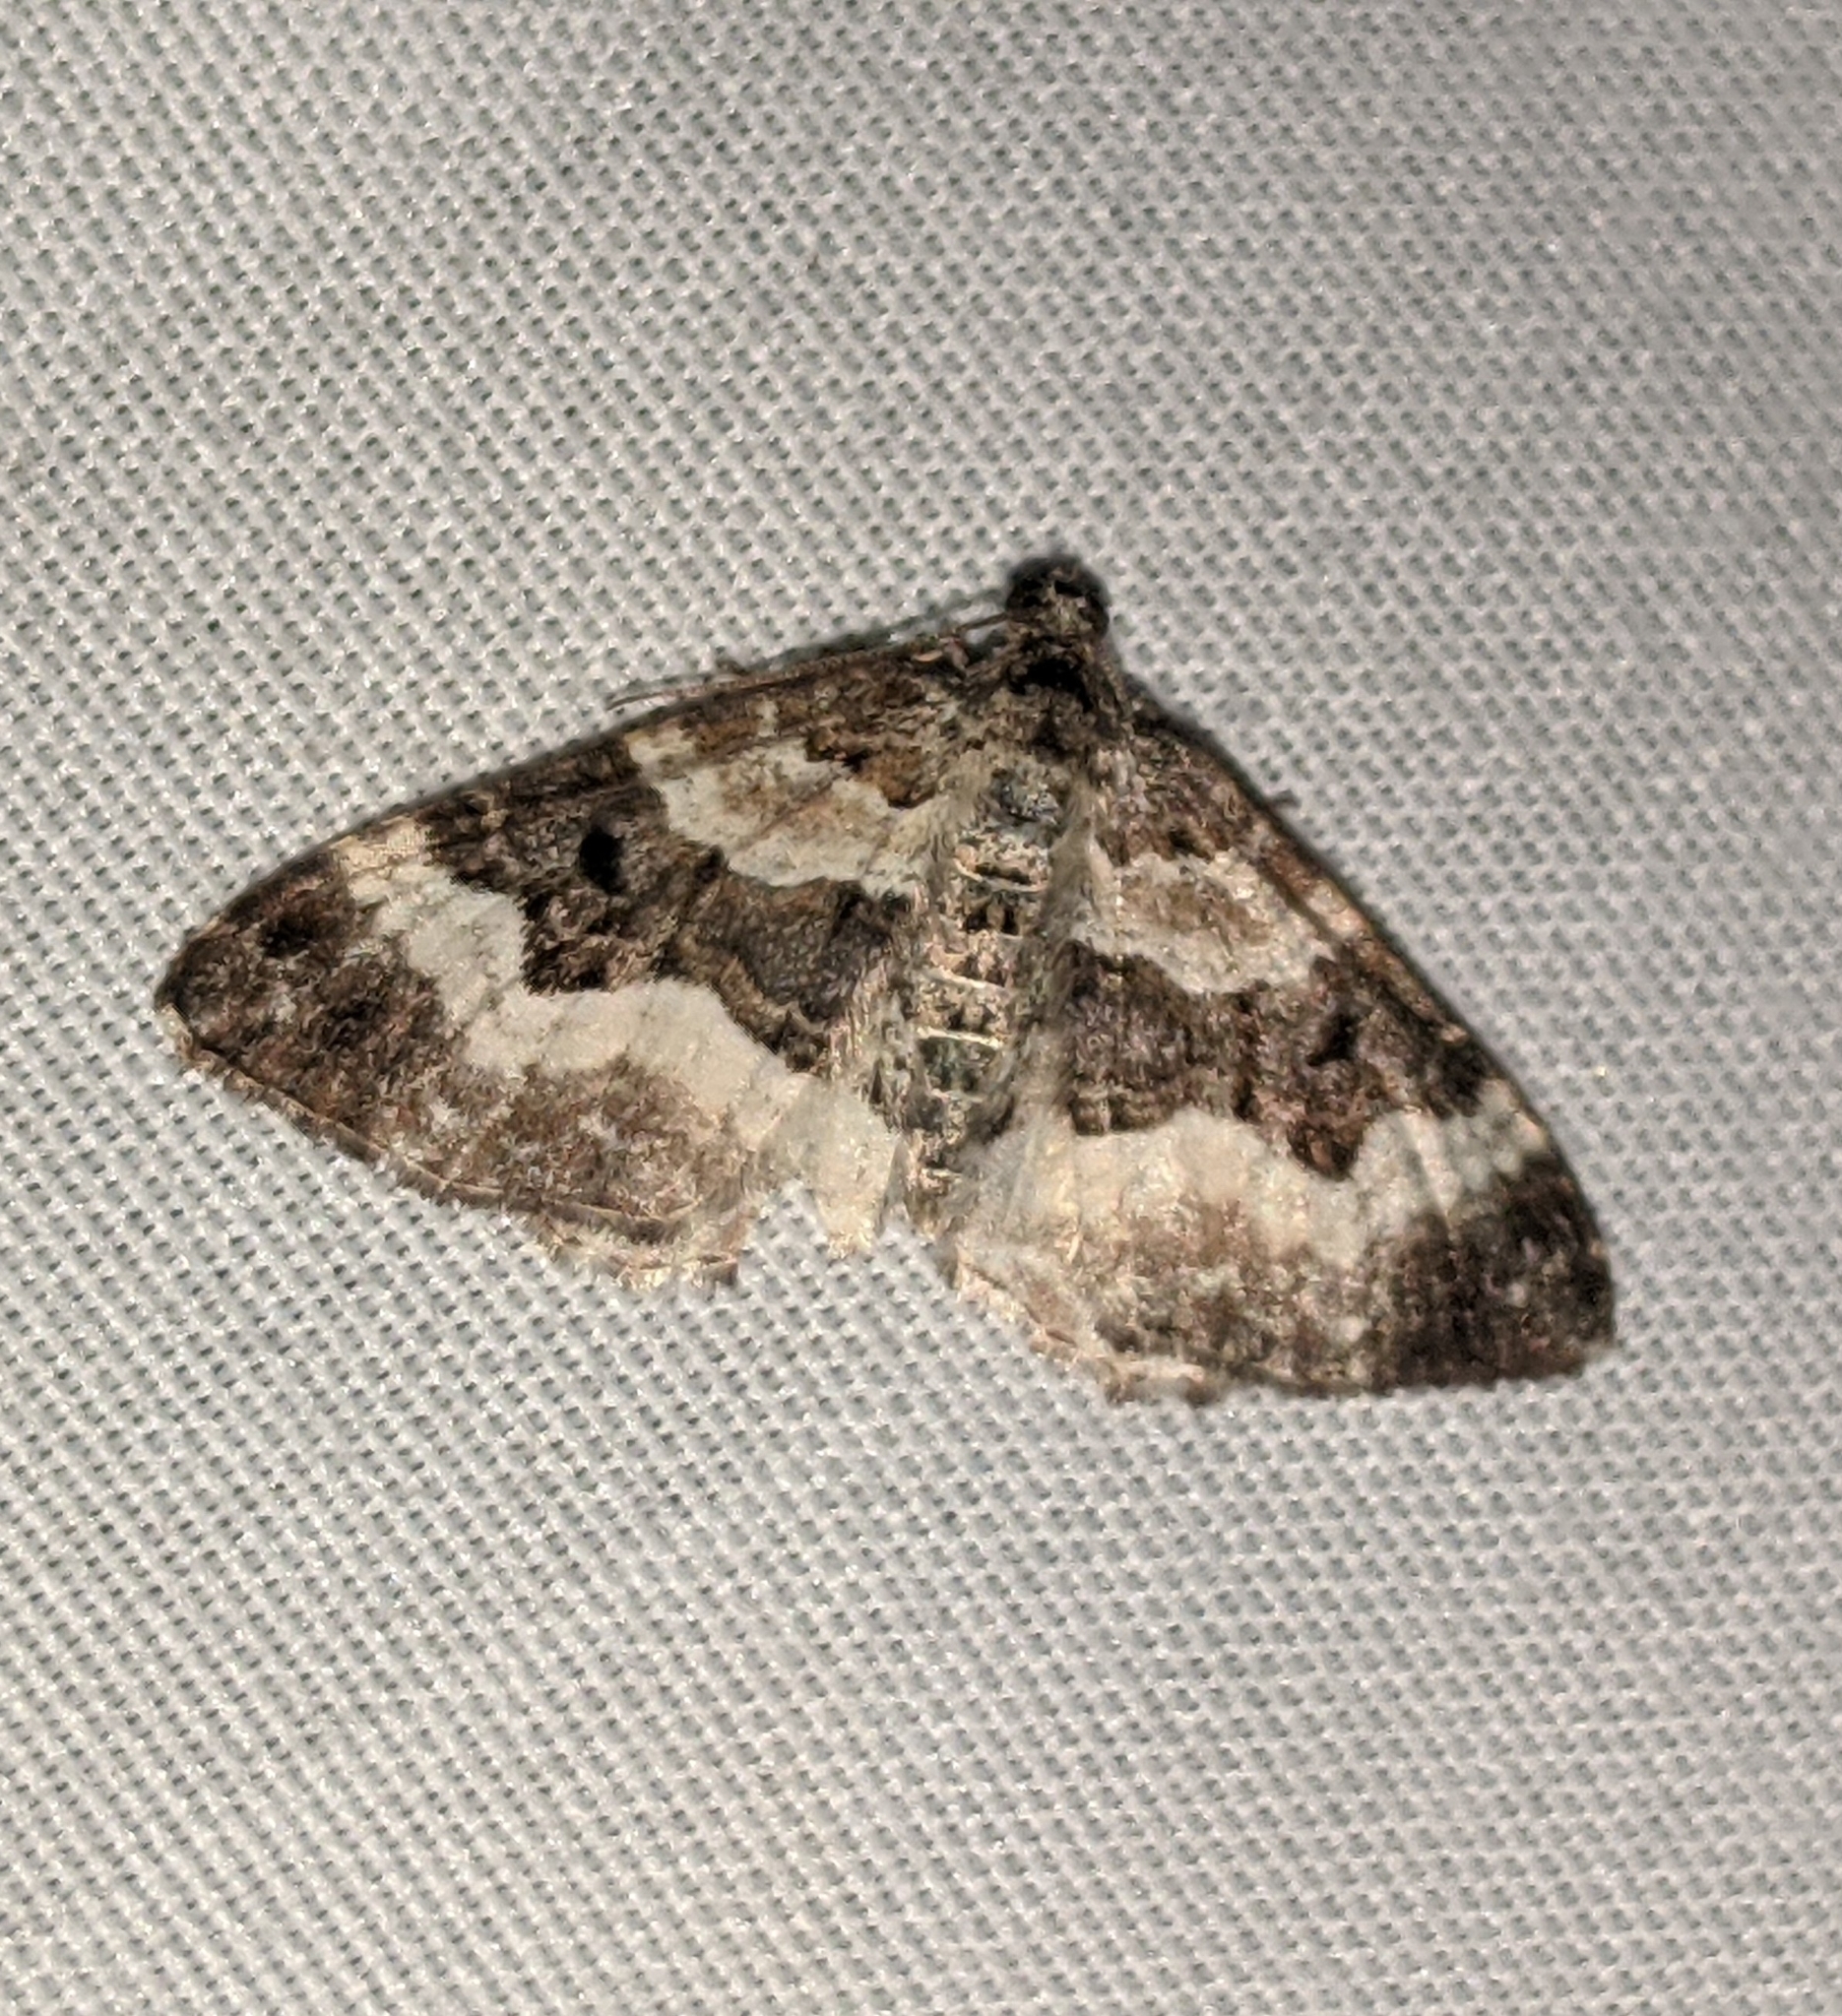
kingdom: Animalia
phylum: Arthropoda
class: Insecta
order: Lepidoptera
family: Geometridae
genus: Epirrhoe
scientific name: Epirrhoe alternata
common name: Common carpet
